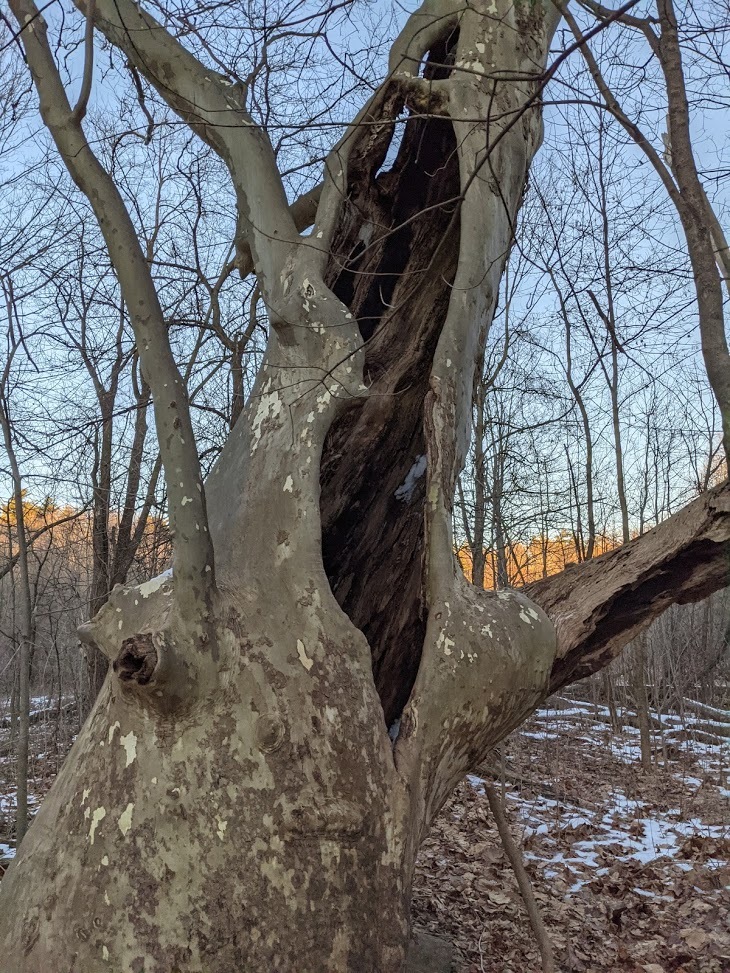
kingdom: Plantae
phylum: Tracheophyta
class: Magnoliopsida
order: Proteales
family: Platanaceae
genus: Platanus
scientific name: Platanus hispanica
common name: London plane
